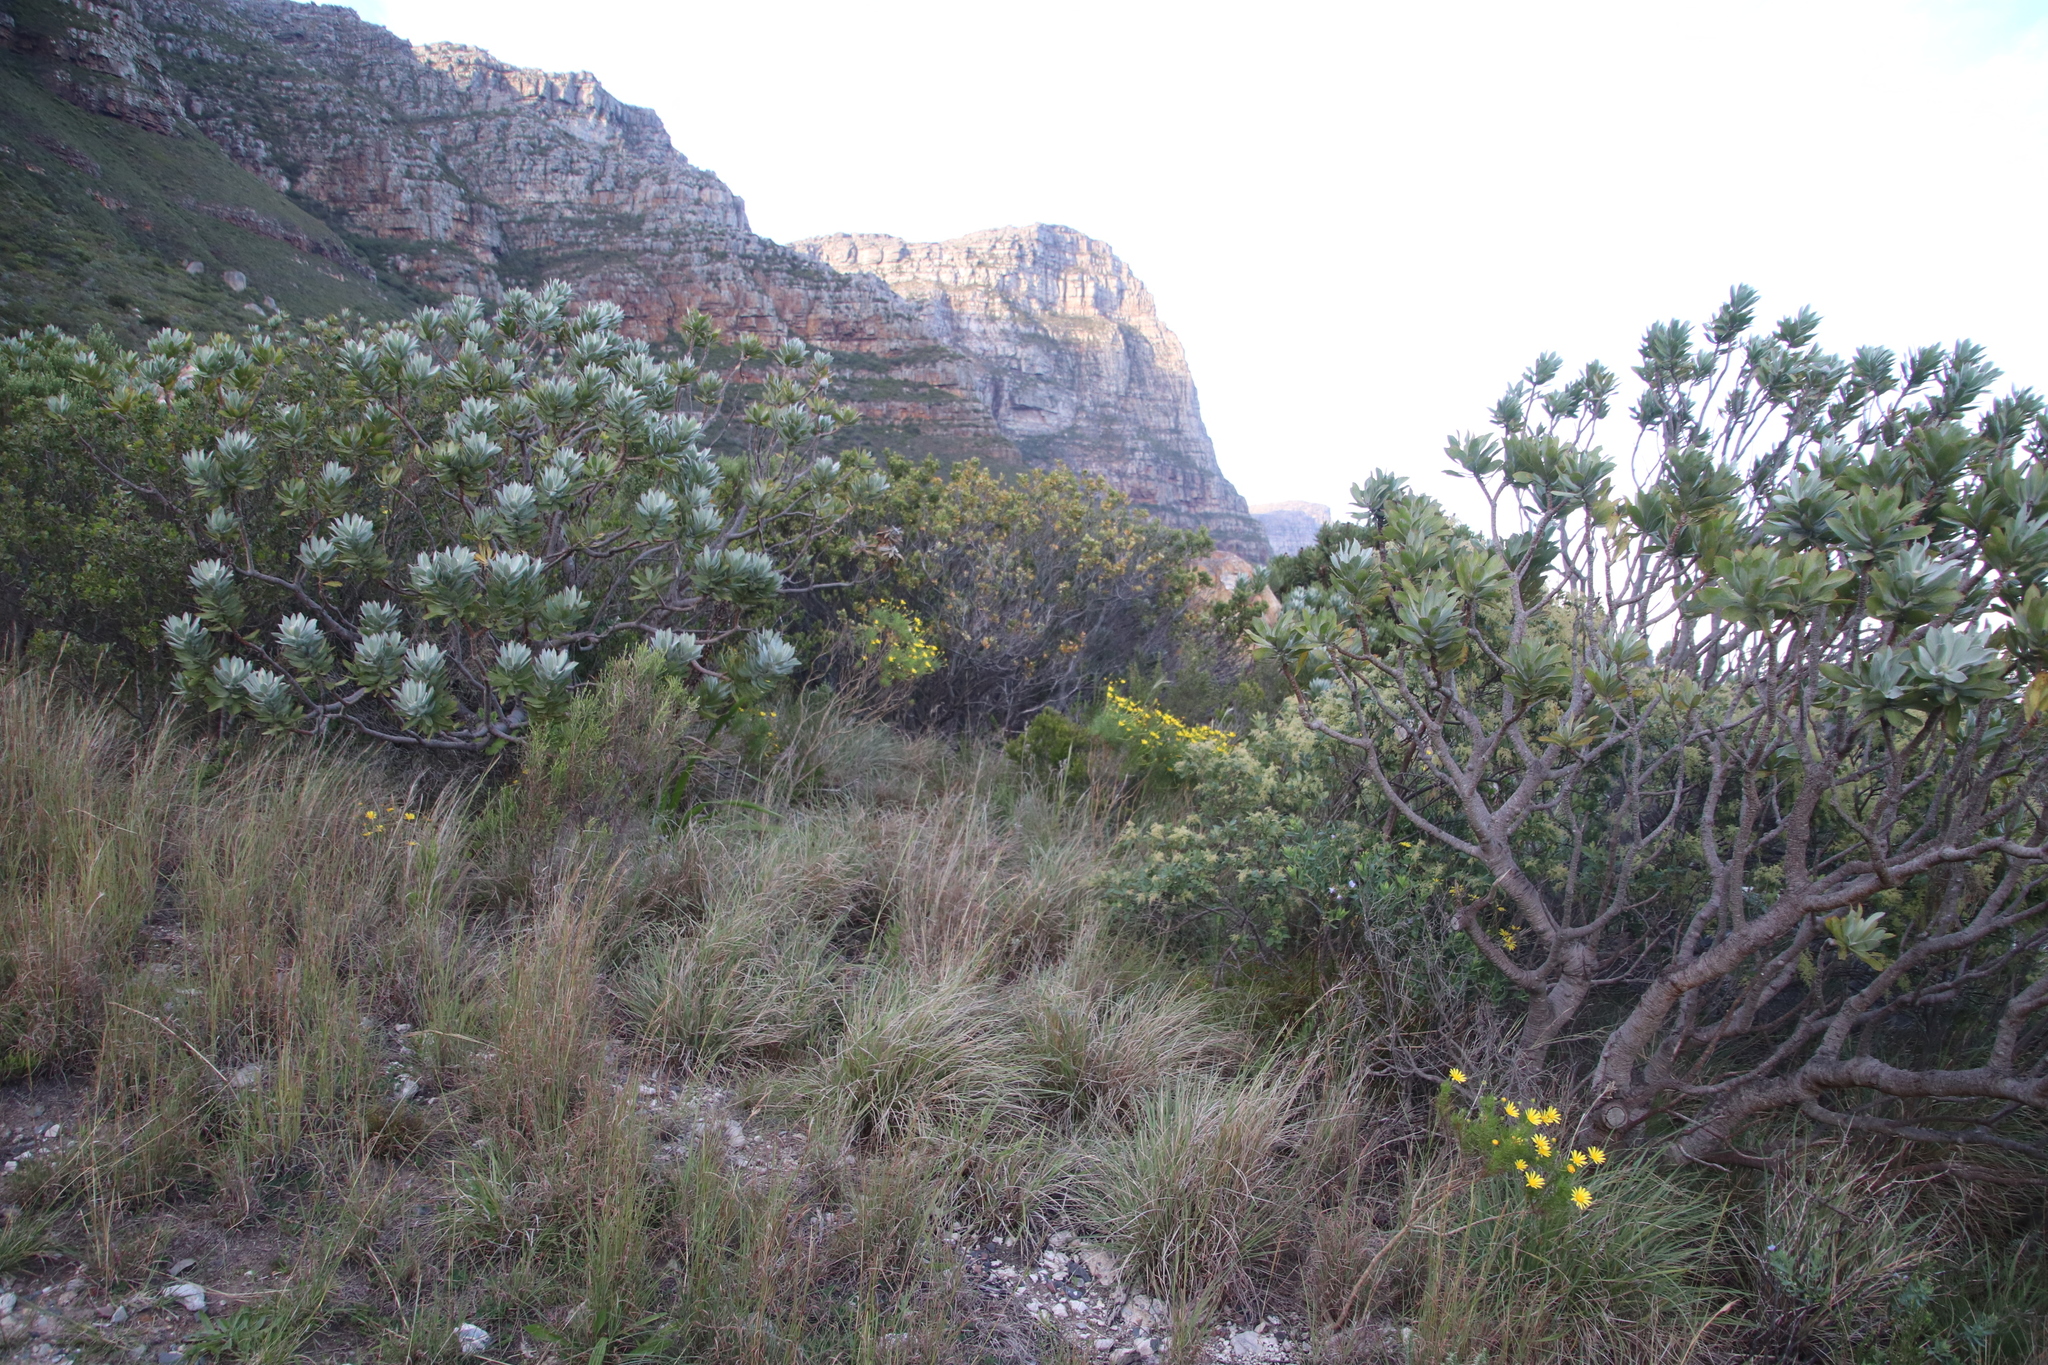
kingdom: Plantae
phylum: Tracheophyta
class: Magnoliopsida
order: Asterales
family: Asteraceae
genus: Euryops
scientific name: Euryops abrotanifolius
